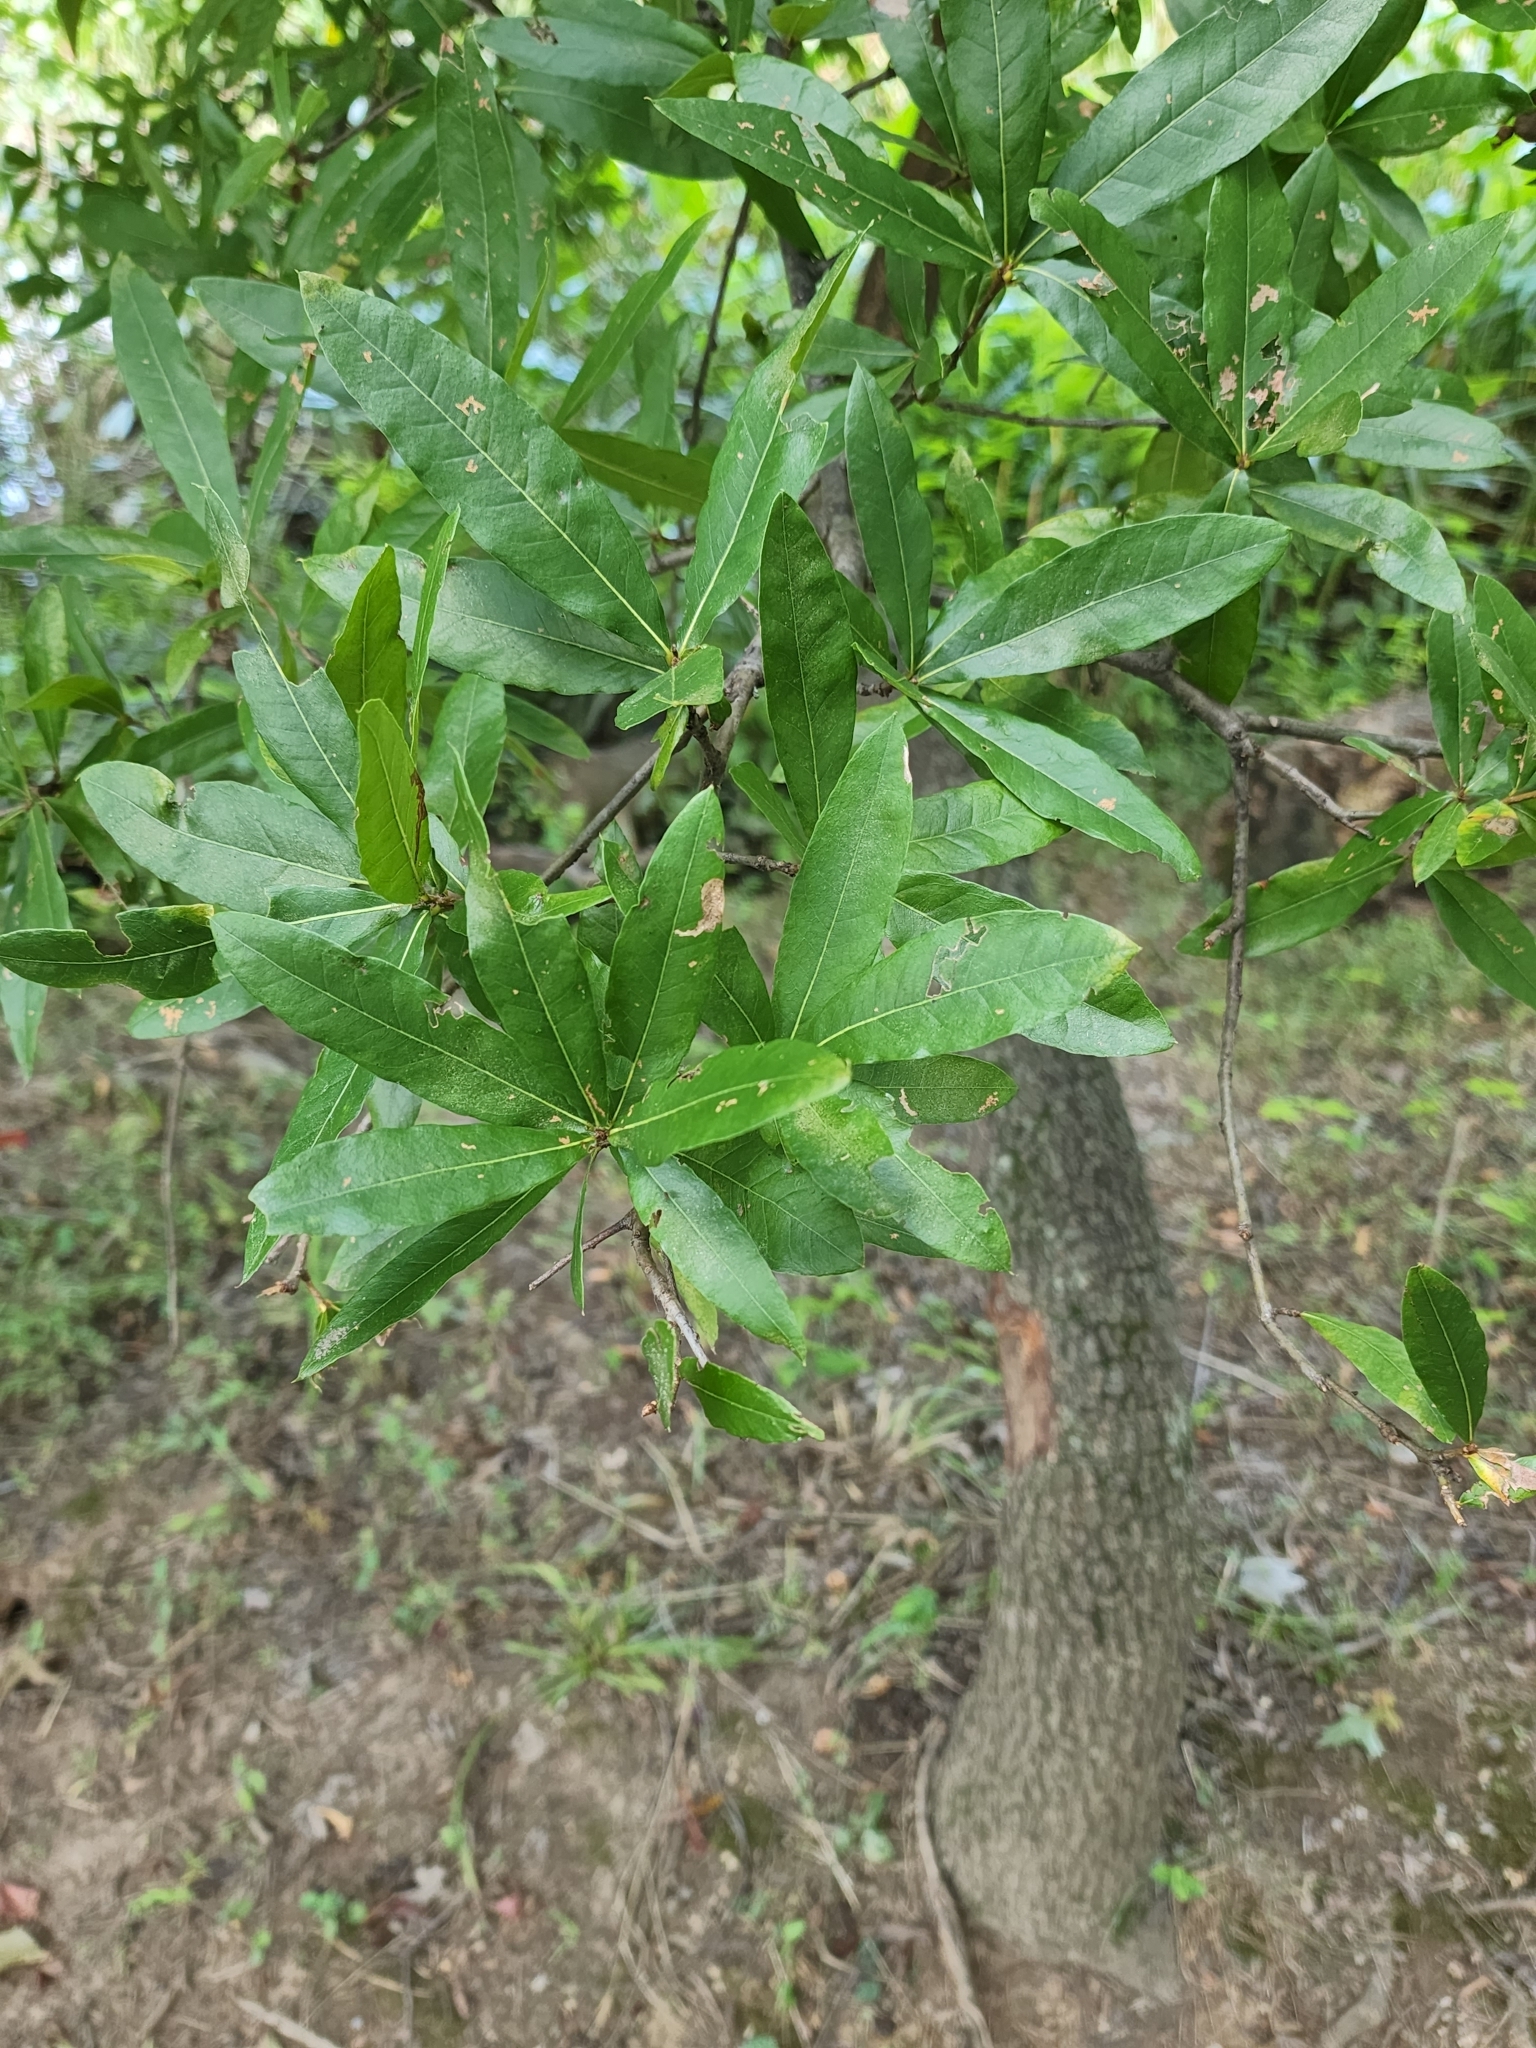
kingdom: Plantae
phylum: Tracheophyta
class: Magnoliopsida
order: Fagales
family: Fagaceae
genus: Quercus
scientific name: Quercus phellos
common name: Willow oak
